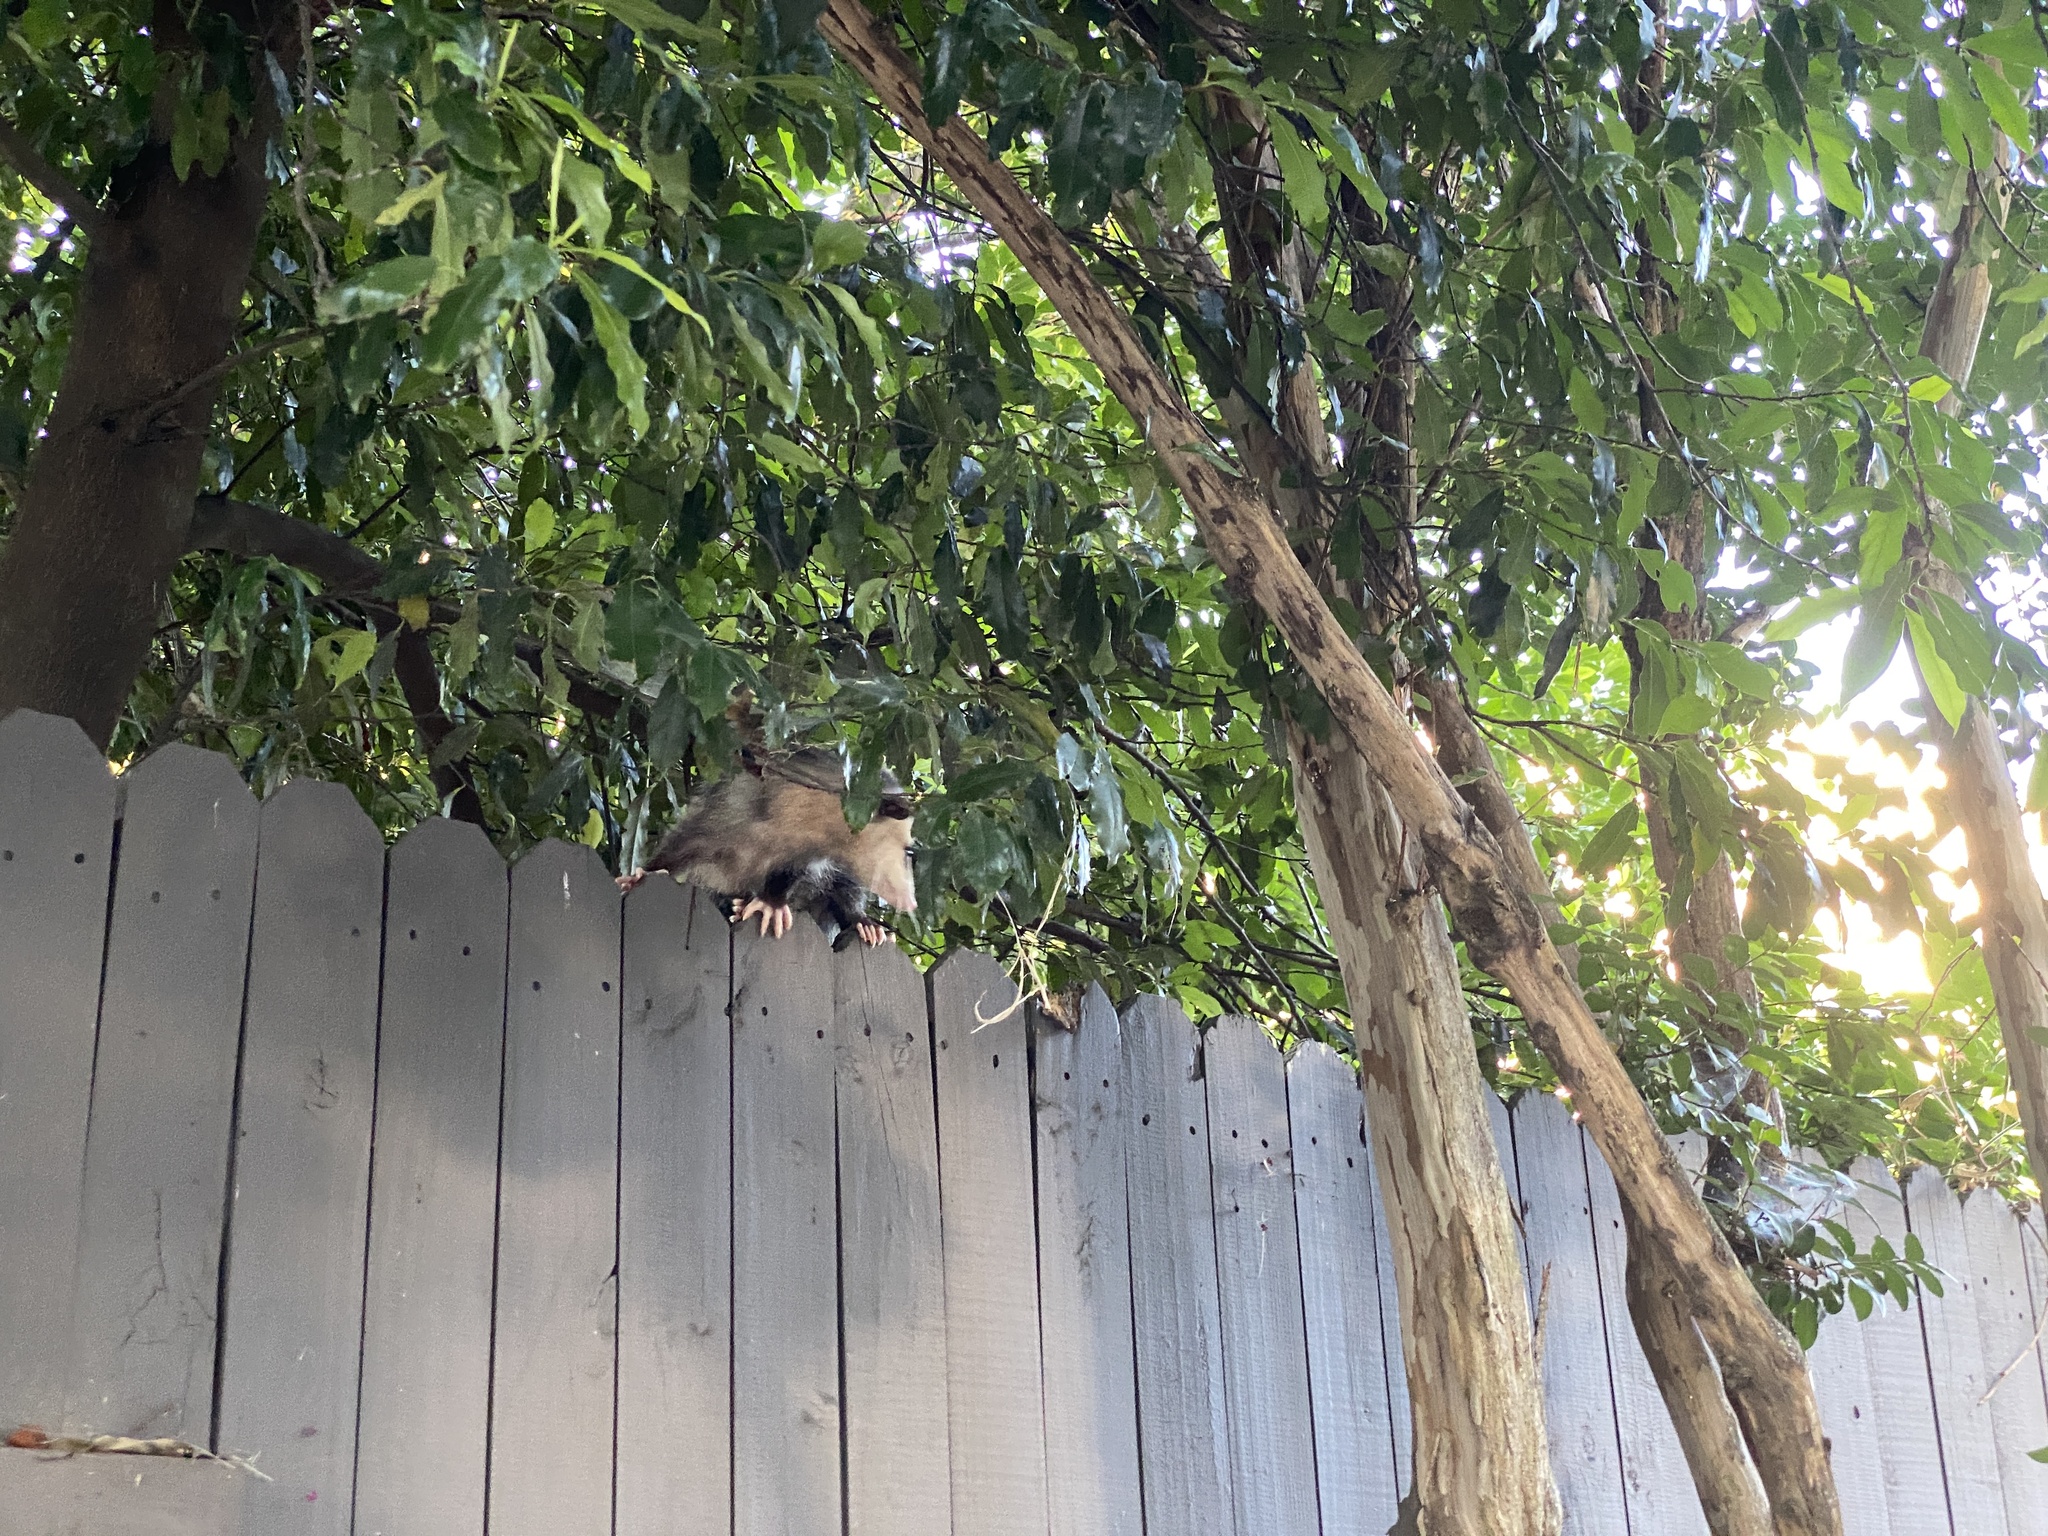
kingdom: Animalia
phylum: Chordata
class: Mammalia
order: Didelphimorphia
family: Didelphidae
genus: Didelphis
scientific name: Didelphis virginiana
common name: Virginia opossum
